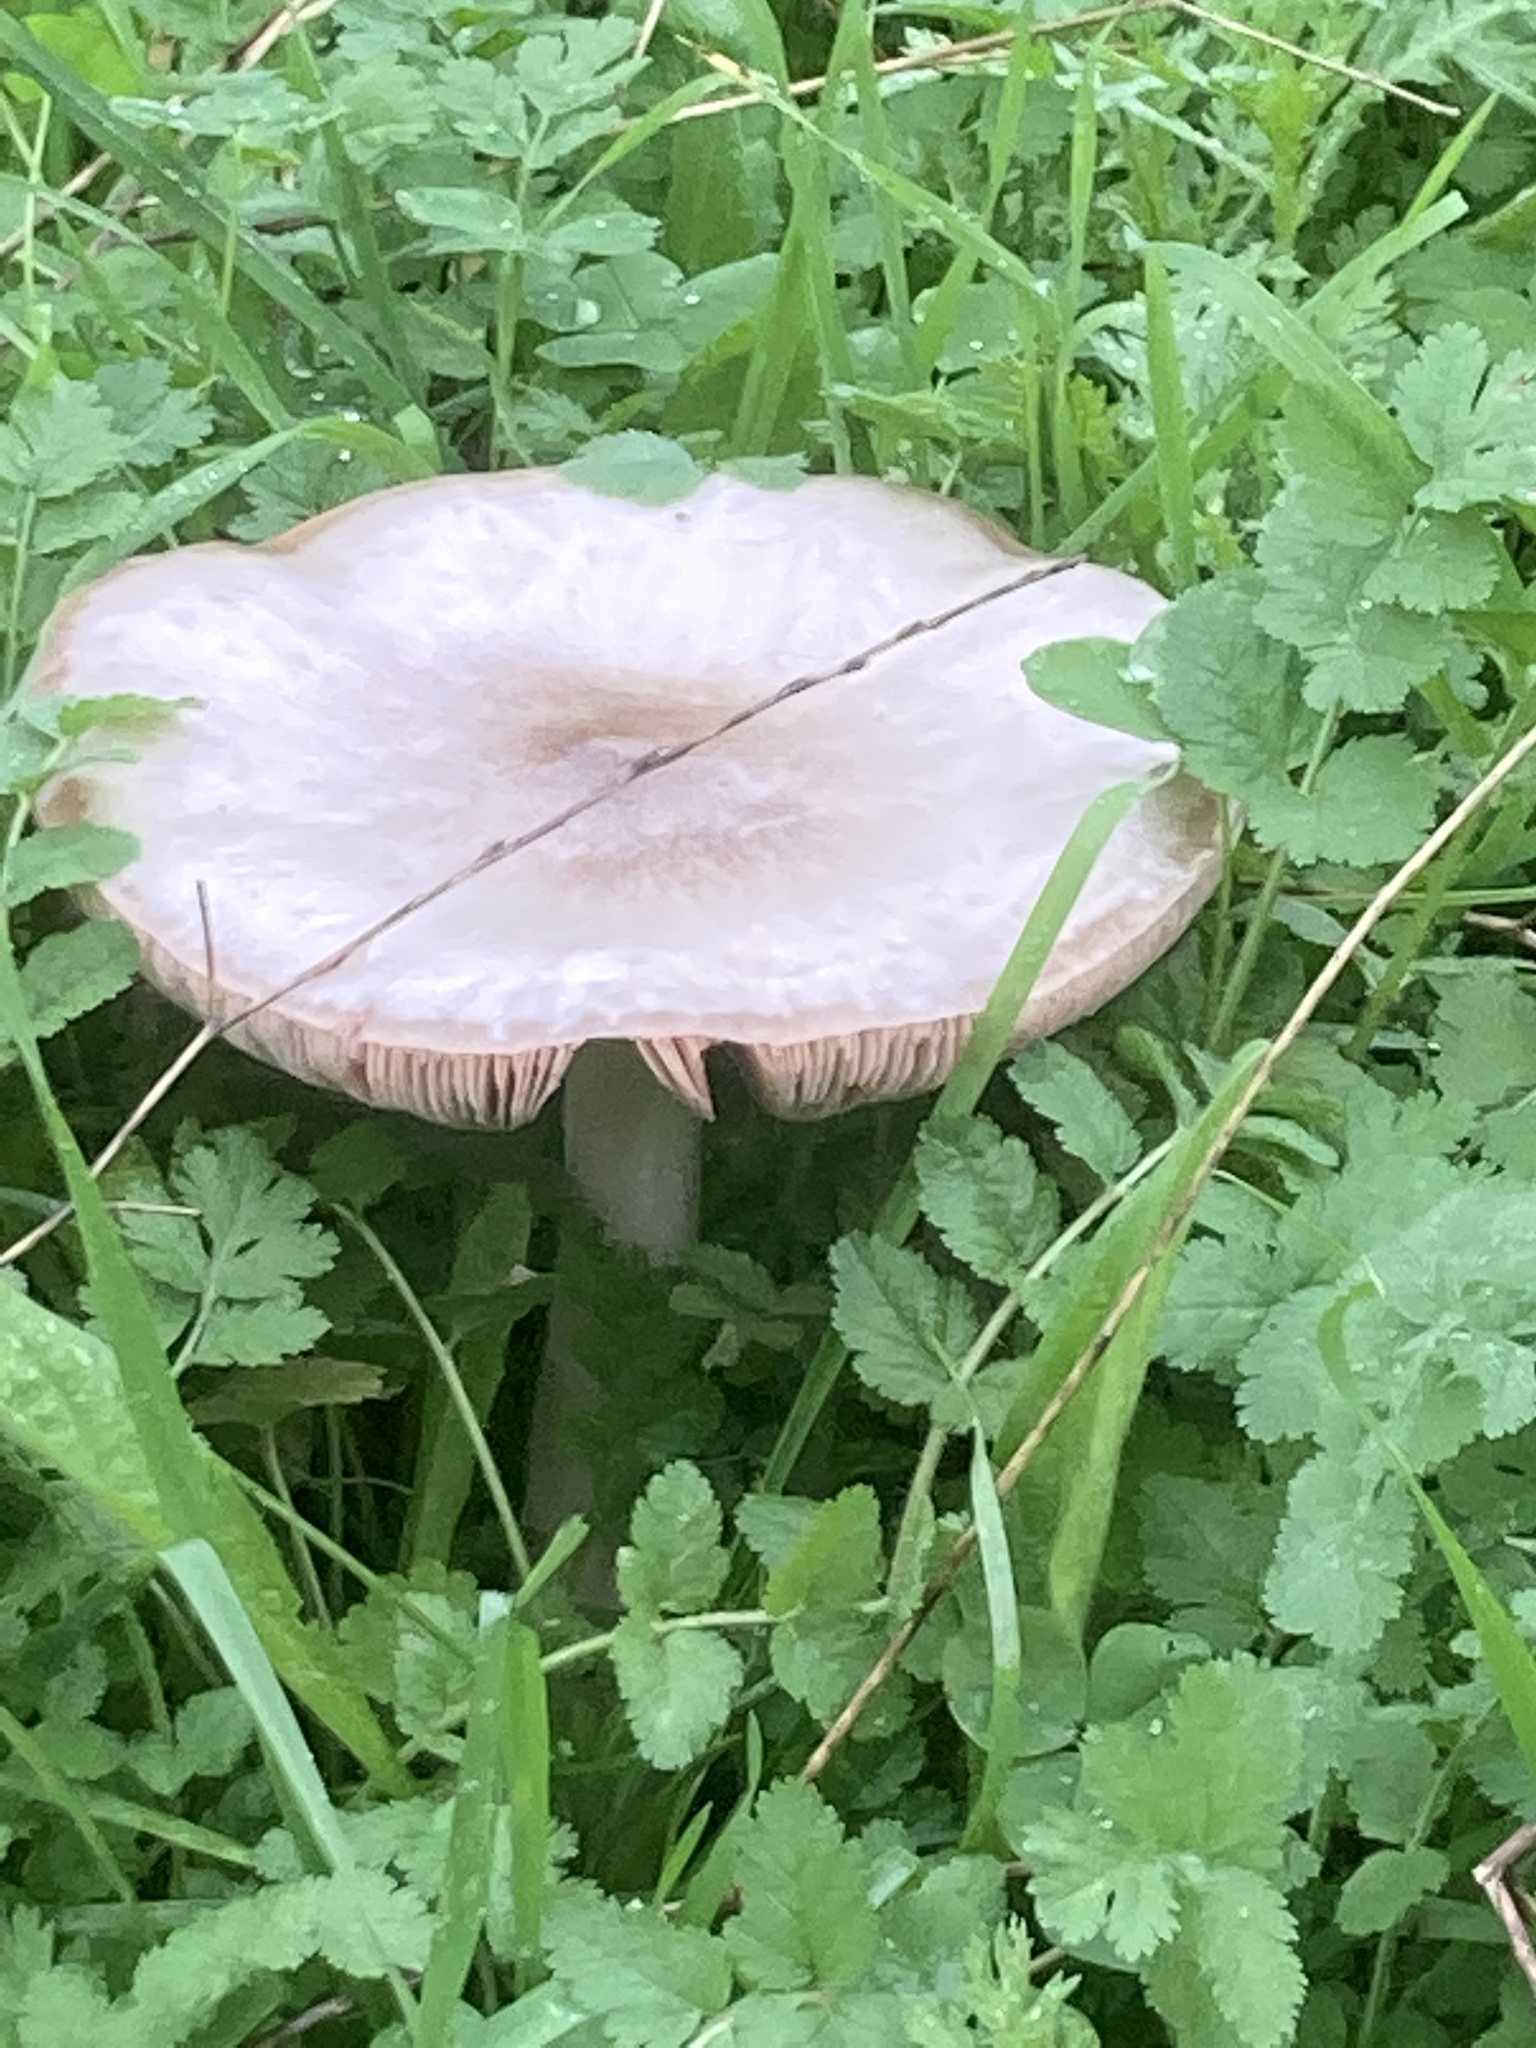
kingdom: Fungi
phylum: Basidiomycota
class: Agaricomycetes
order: Agaricales
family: Pluteaceae
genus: Volvopluteus
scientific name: Volvopluteus gloiocephalus
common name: Stubble rosegill
